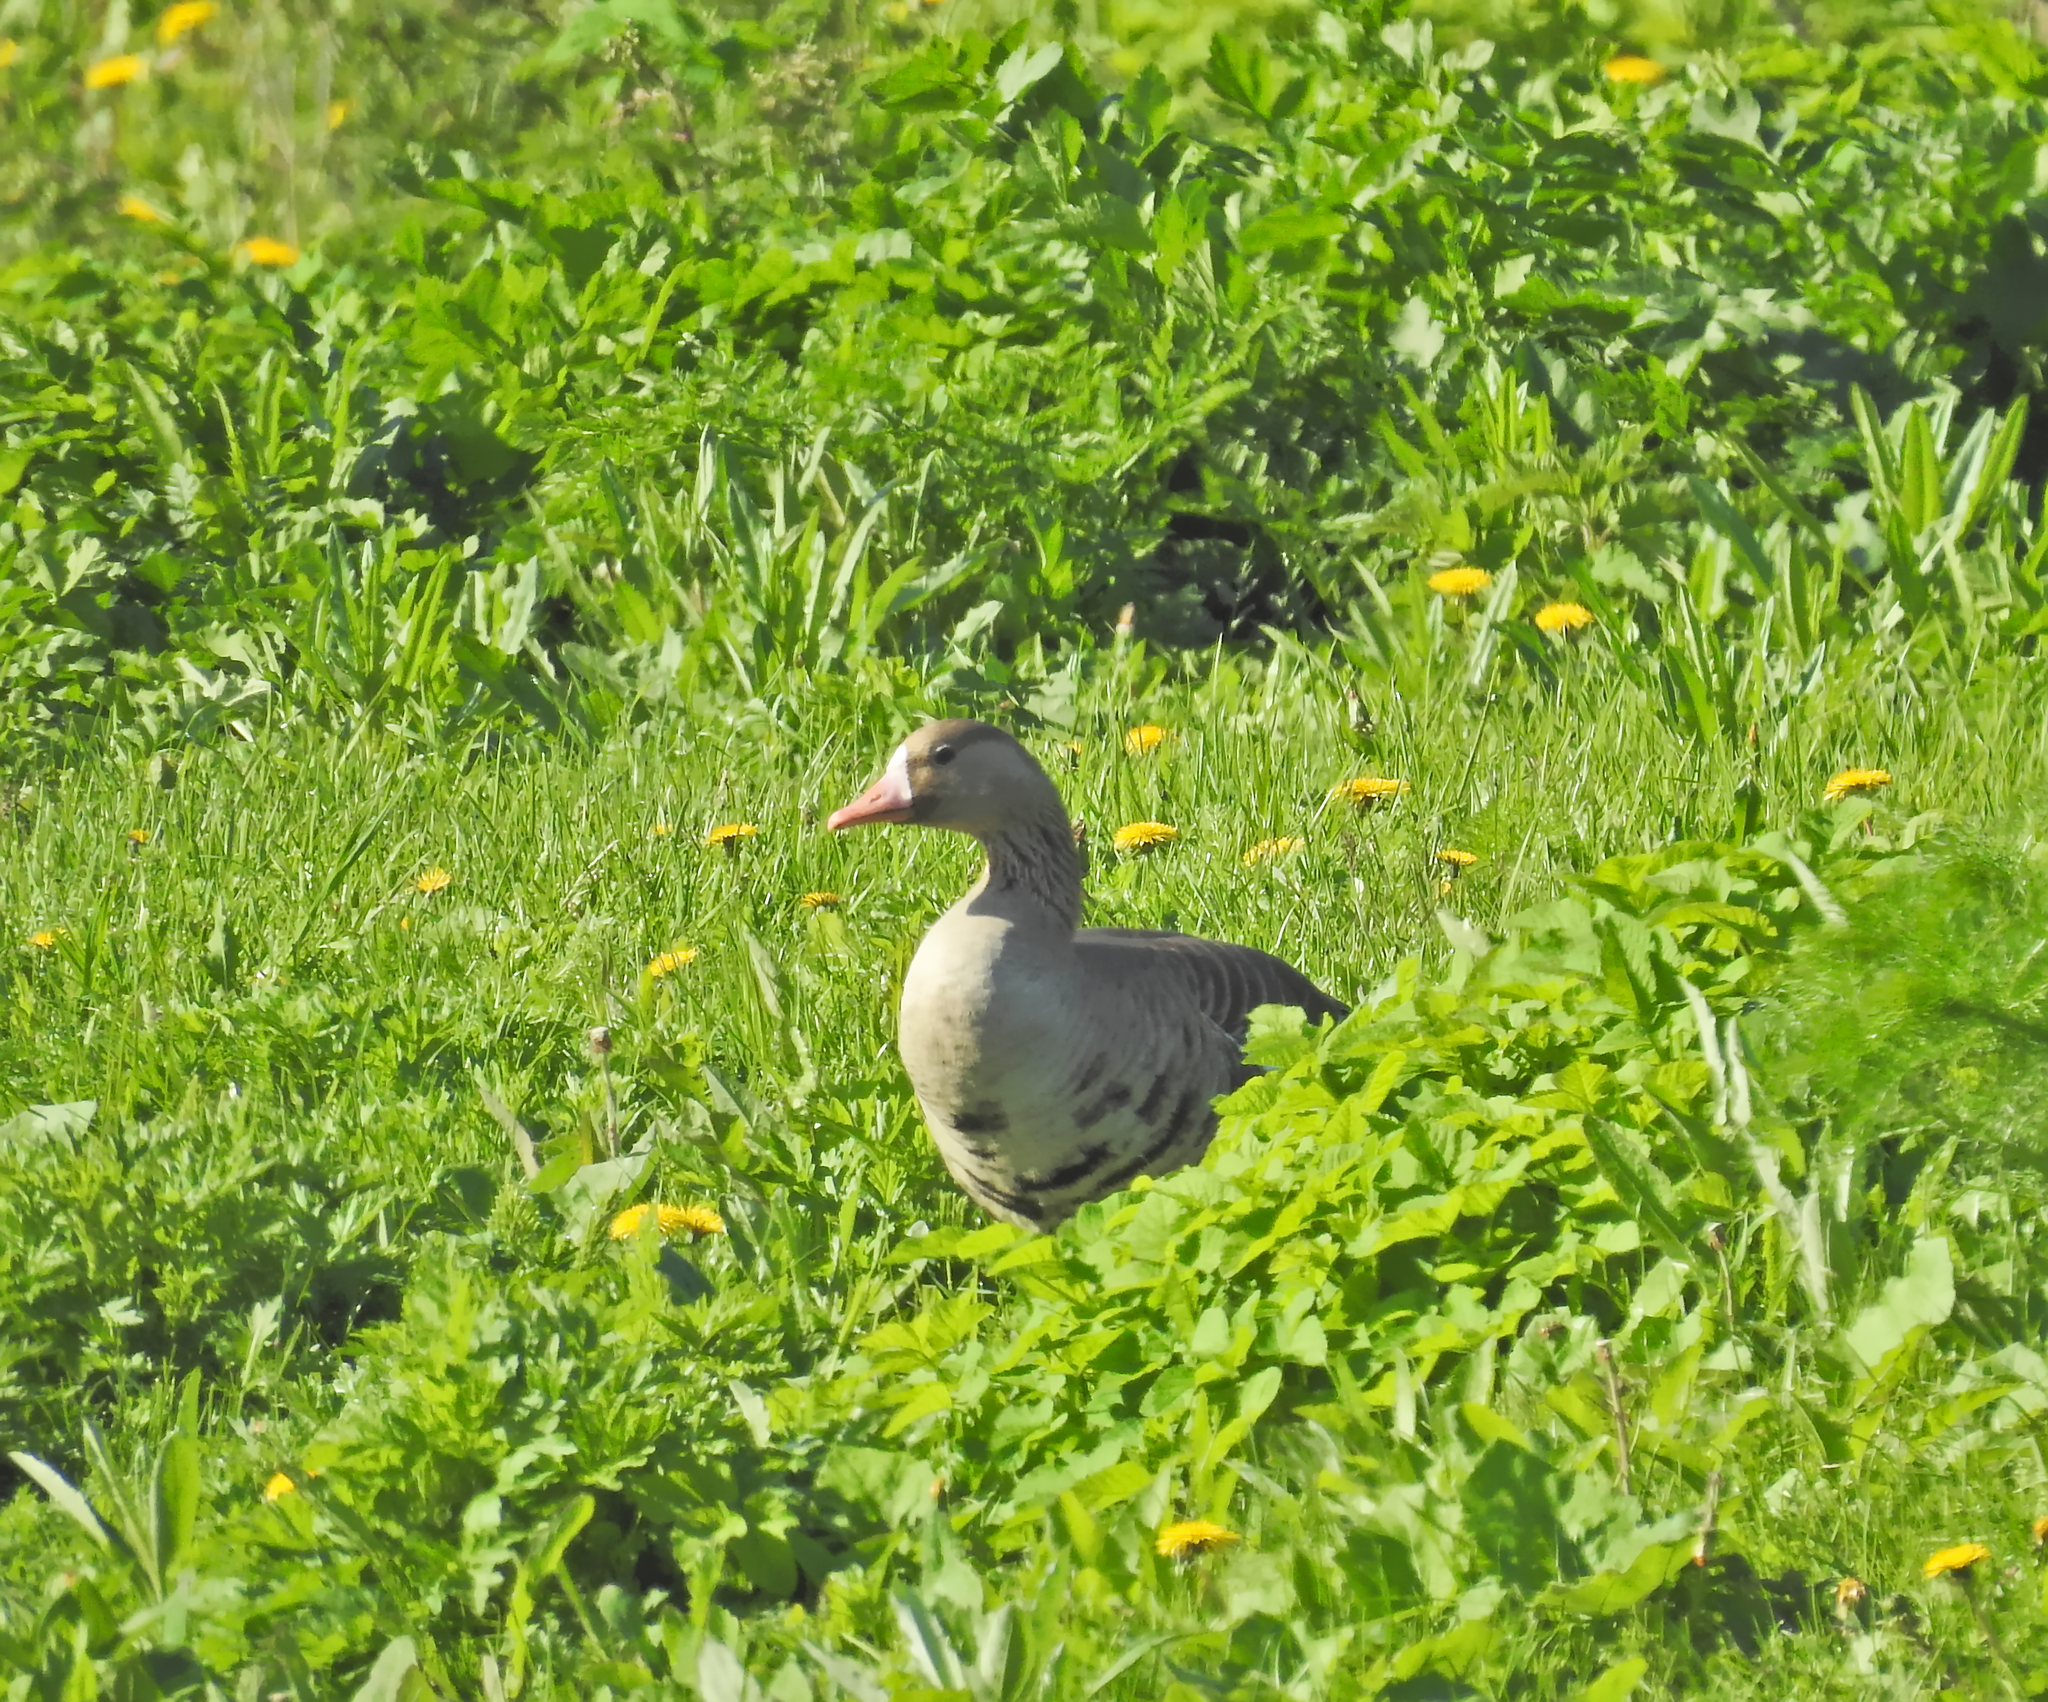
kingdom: Animalia
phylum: Chordata
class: Aves
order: Anseriformes
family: Anatidae
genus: Anser
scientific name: Anser albifrons
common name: Greater white-fronted goose
